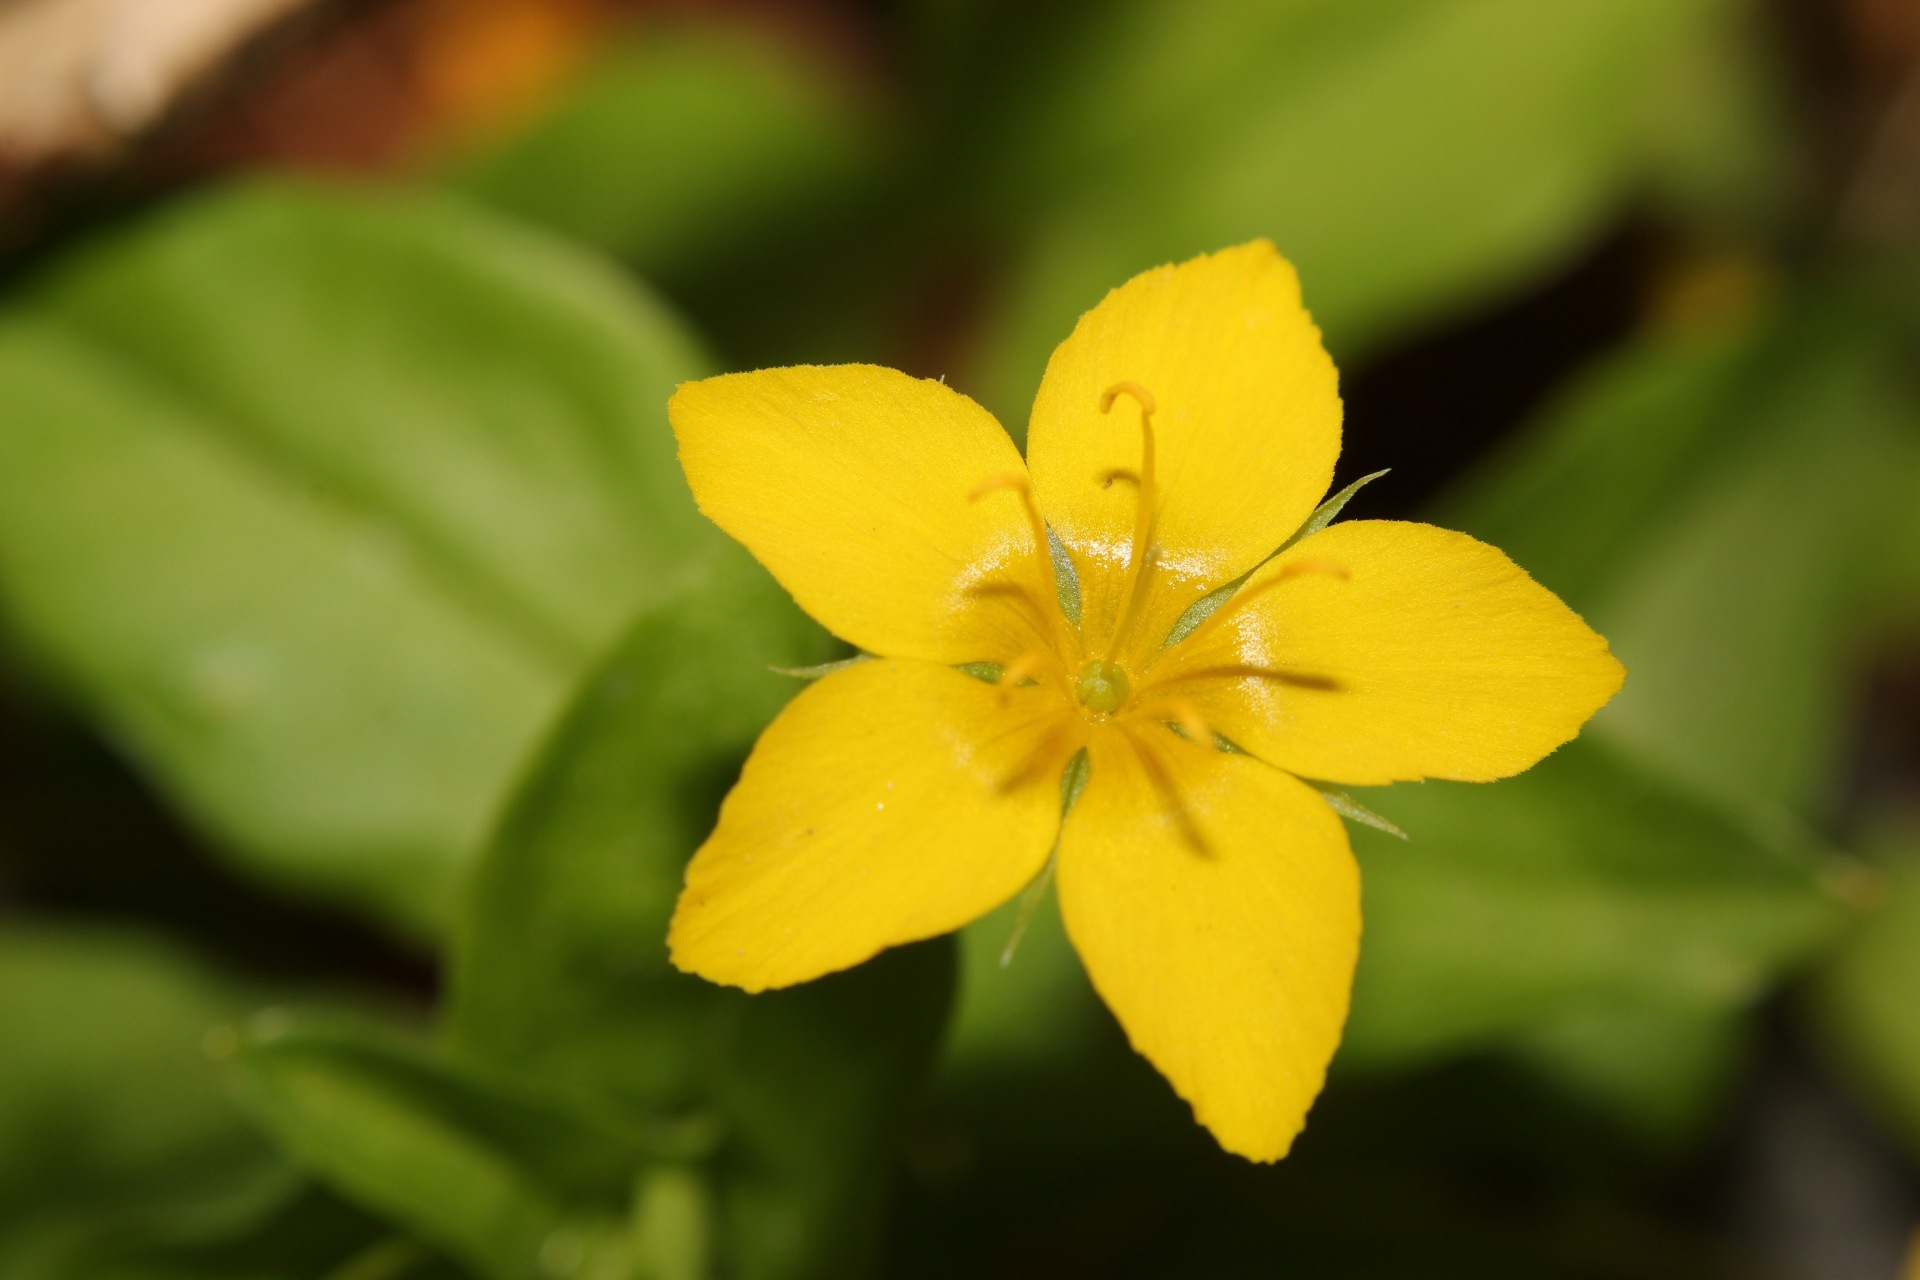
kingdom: Plantae
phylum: Tracheophyta
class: Magnoliopsida
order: Ericales
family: Primulaceae
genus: Lysimachia
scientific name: Lysimachia nemorum
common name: Yellow pimpernel
